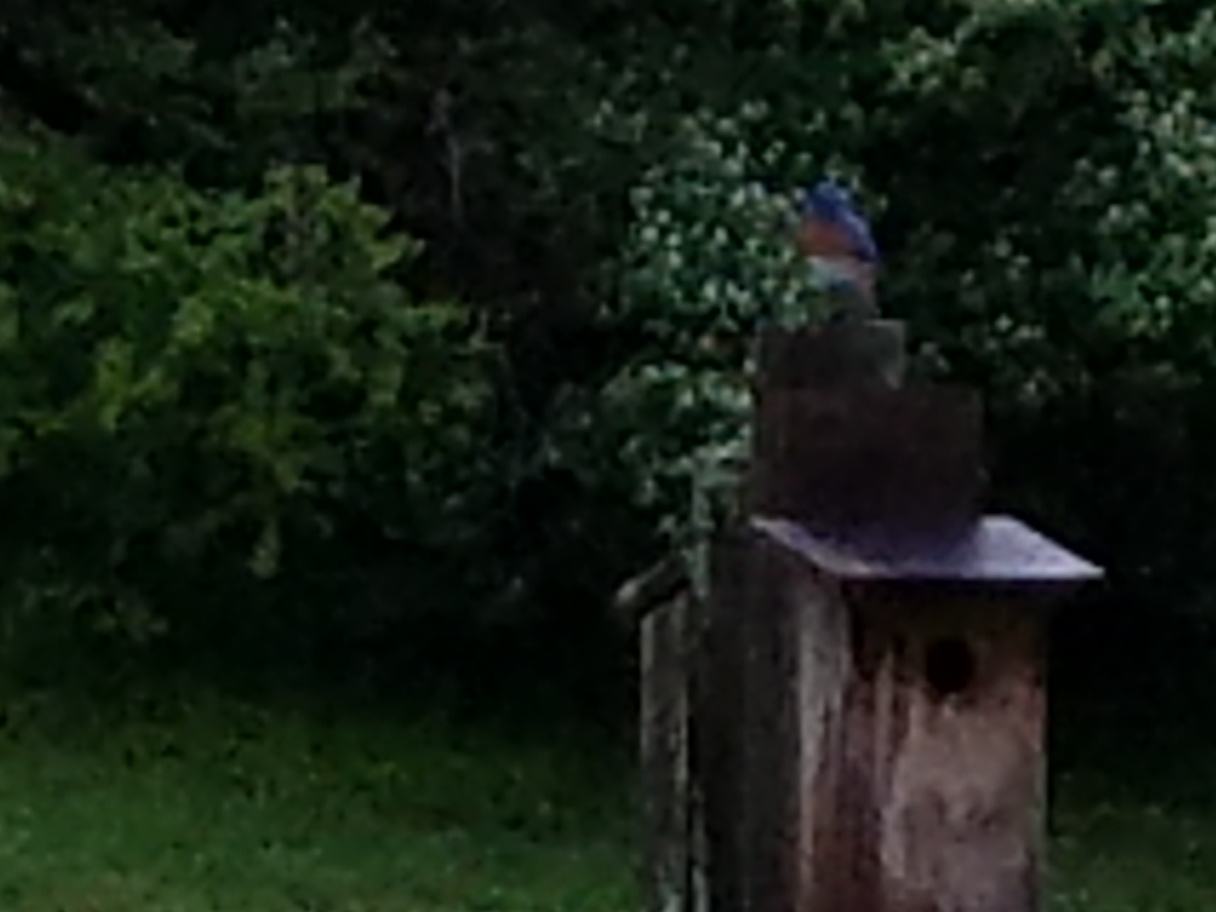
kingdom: Animalia
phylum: Chordata
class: Aves
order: Passeriformes
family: Turdidae
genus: Sialia
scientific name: Sialia sialis
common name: Eastern bluebird
